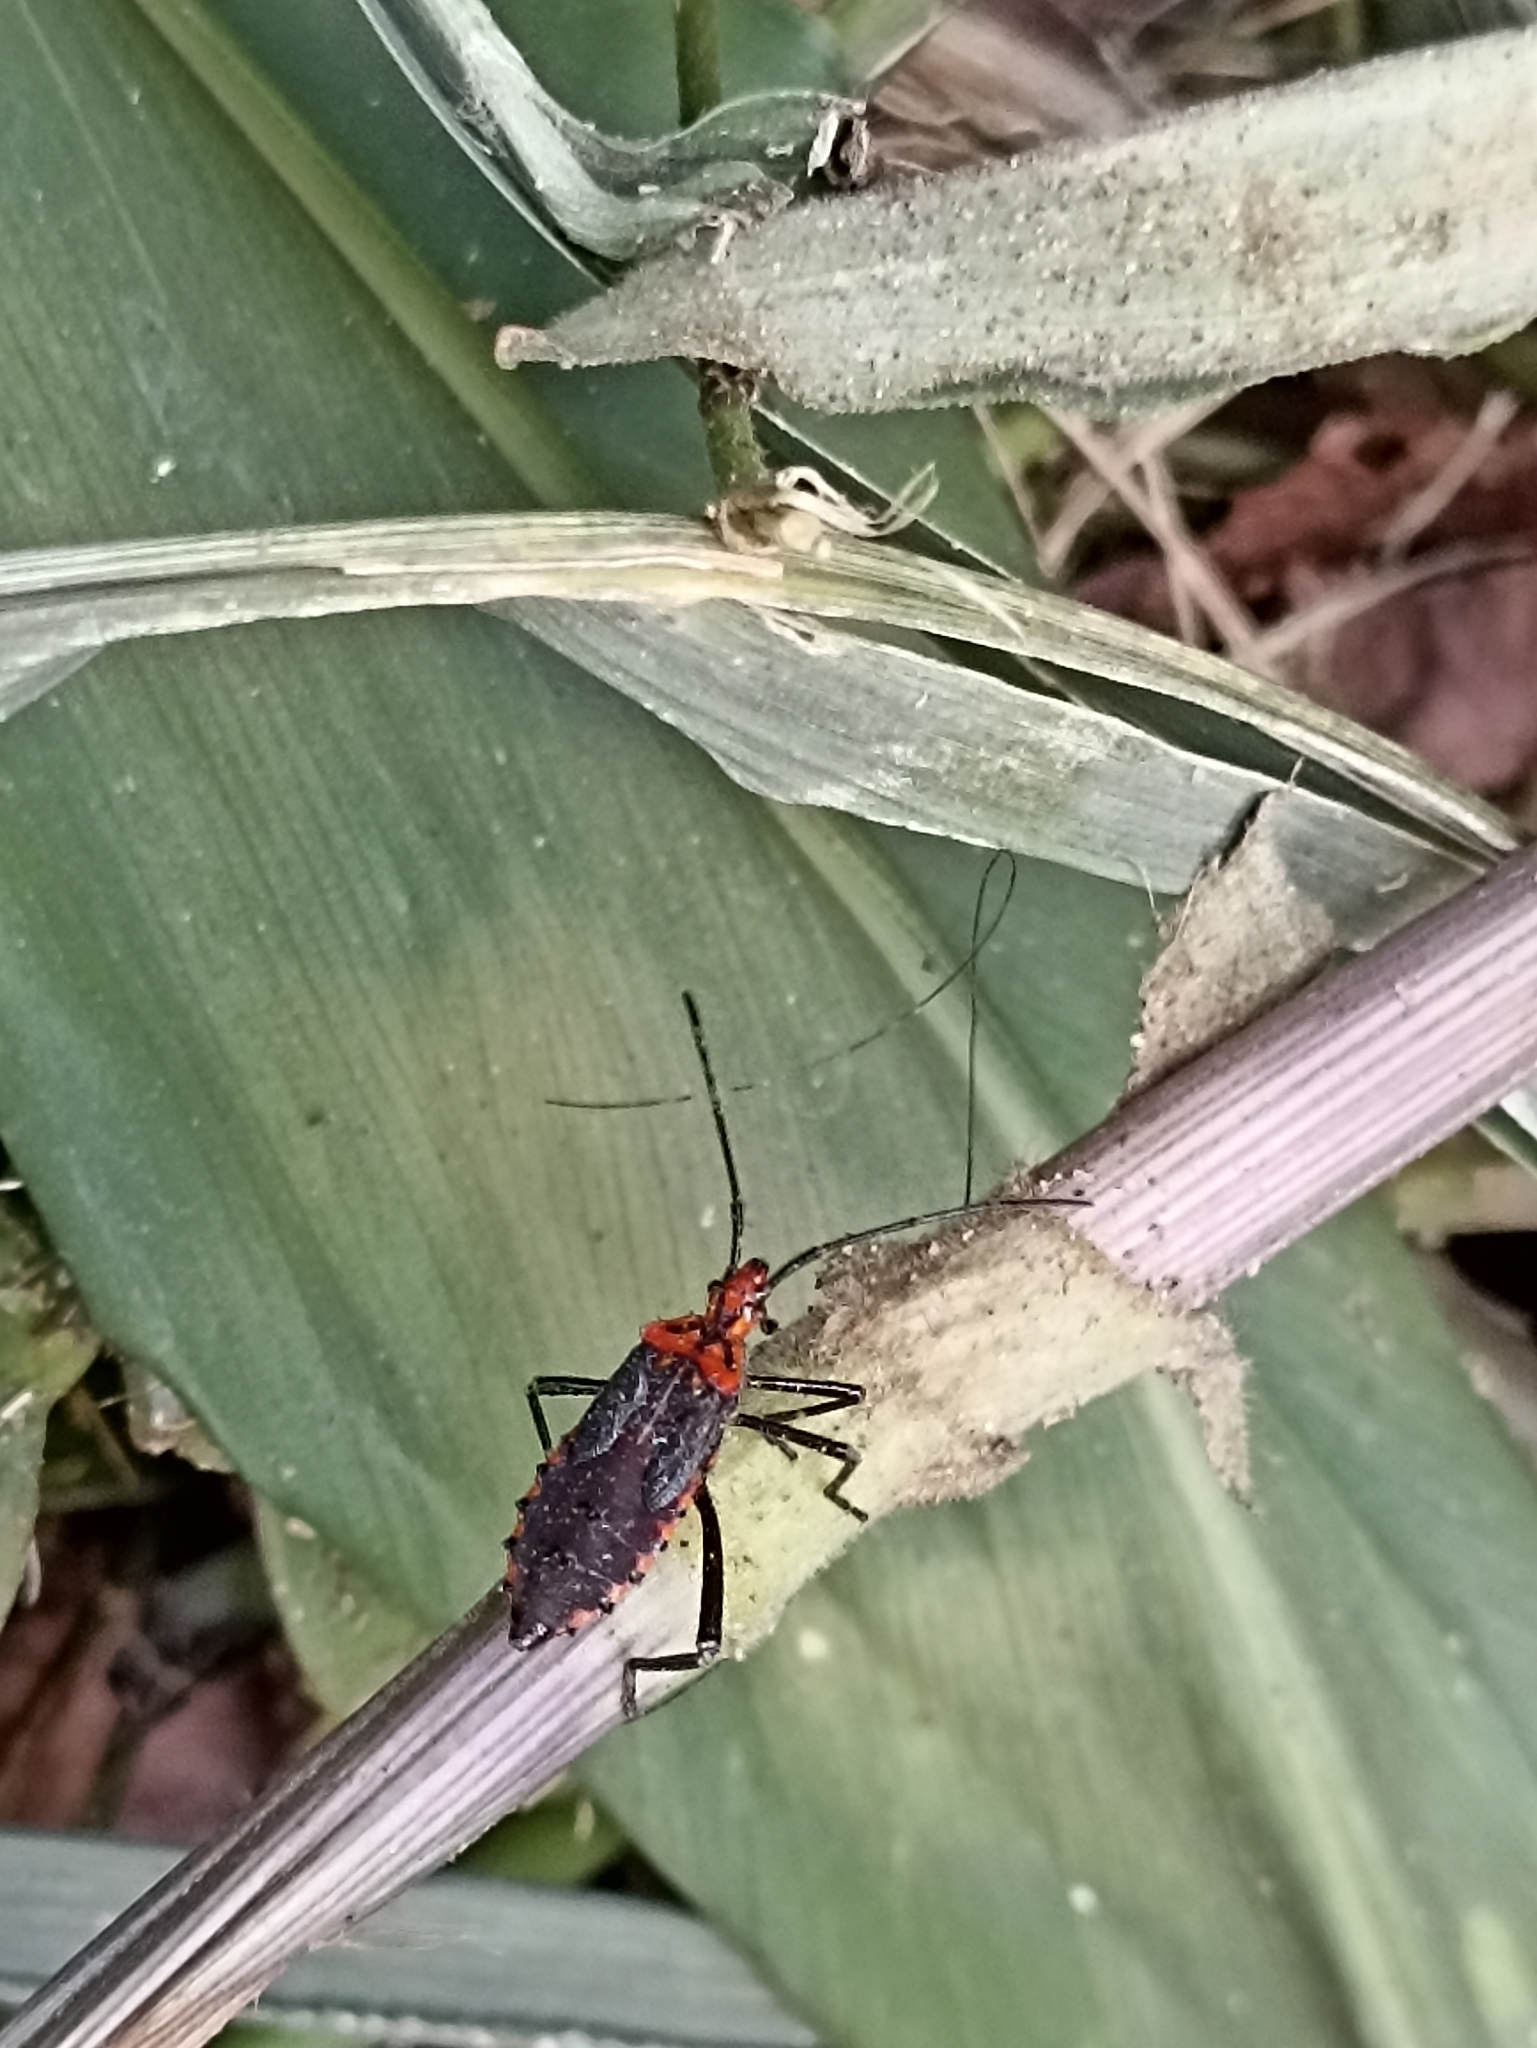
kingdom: Animalia
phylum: Arthropoda
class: Insecta
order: Hemiptera
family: Coreidae
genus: Phthiacnemia
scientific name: Phthiacnemia picta
